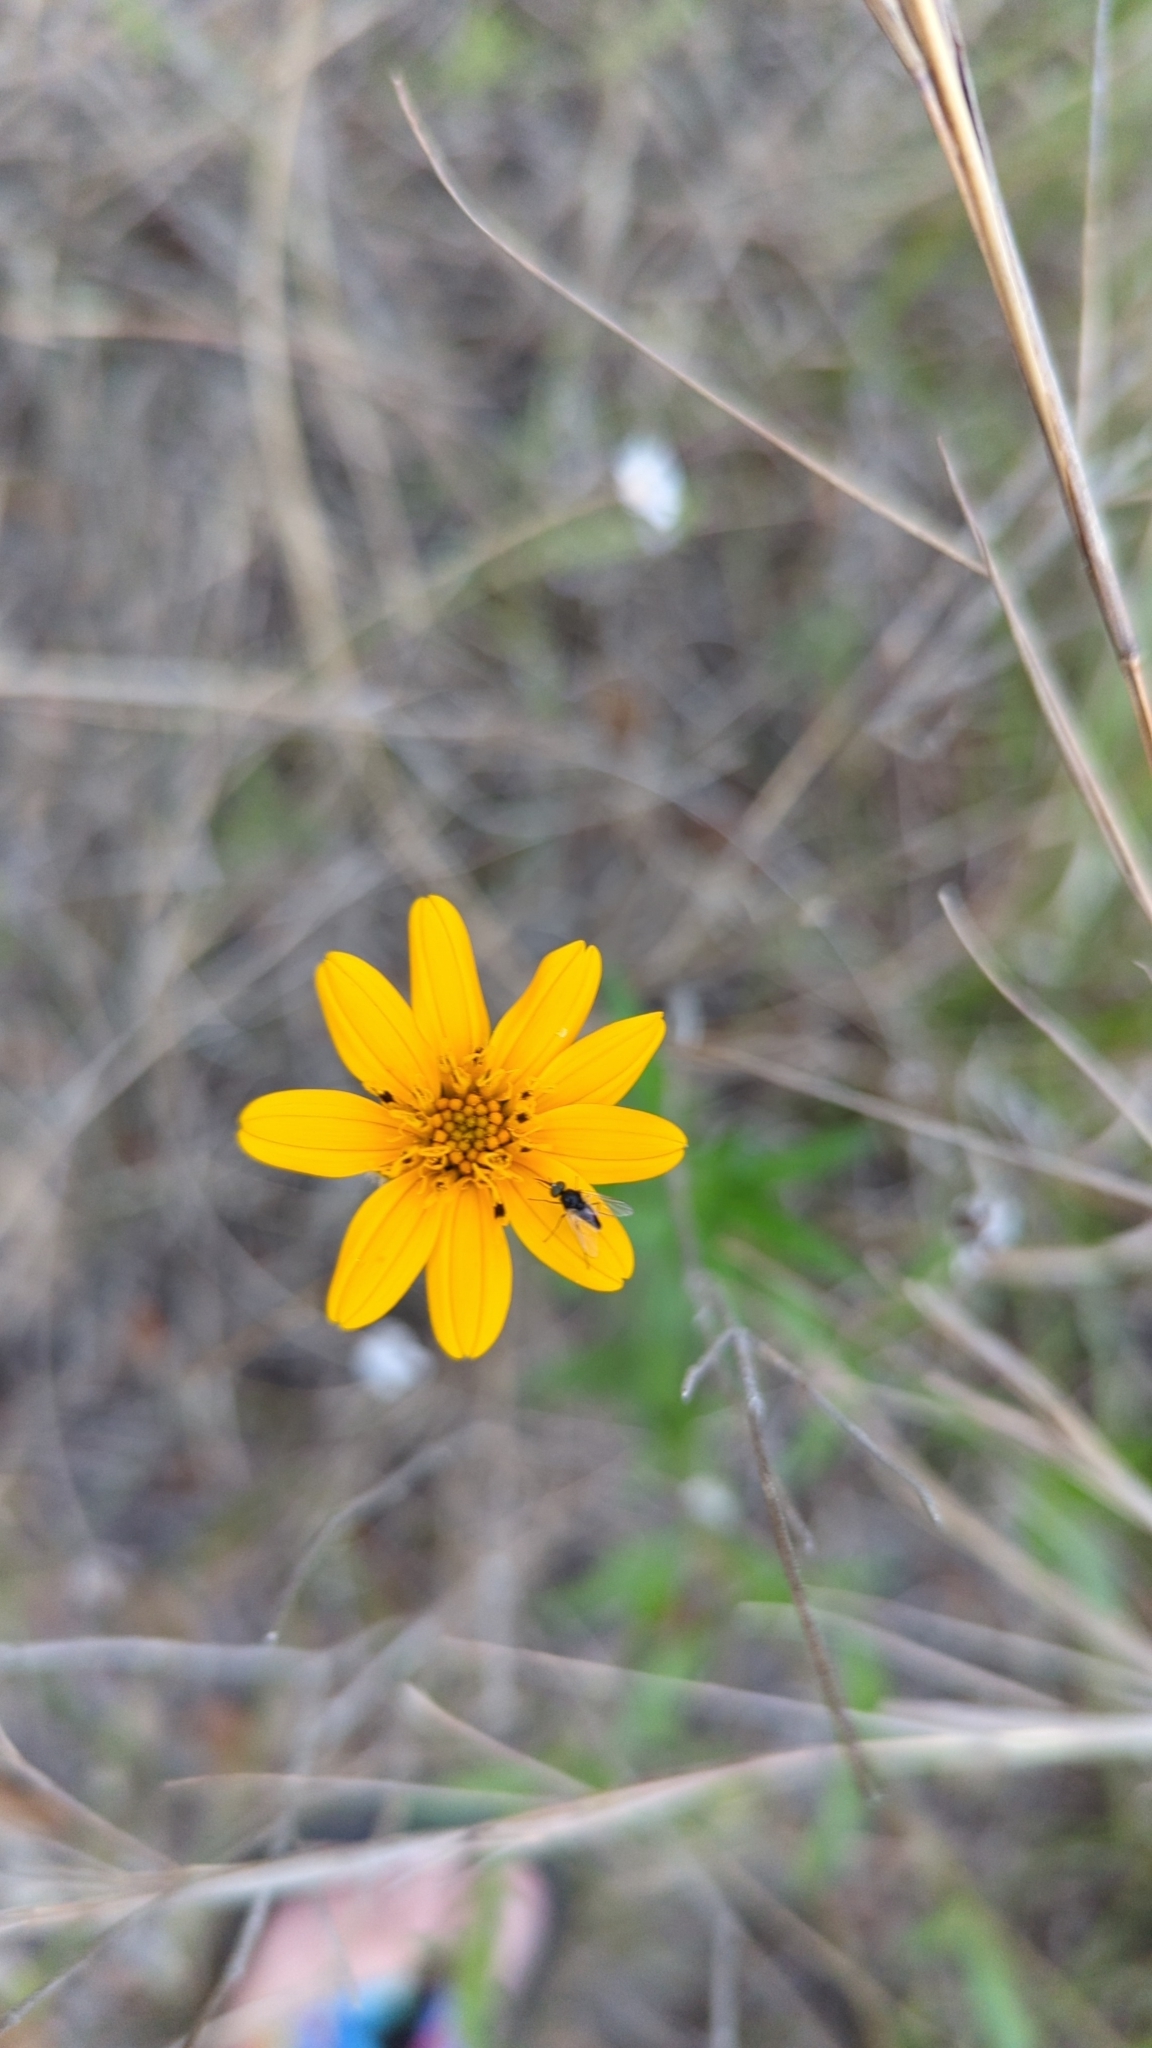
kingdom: Plantae
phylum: Tracheophyta
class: Magnoliopsida
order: Asterales
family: Asteraceae
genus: Wedelia
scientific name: Wedelia acapulcensis
